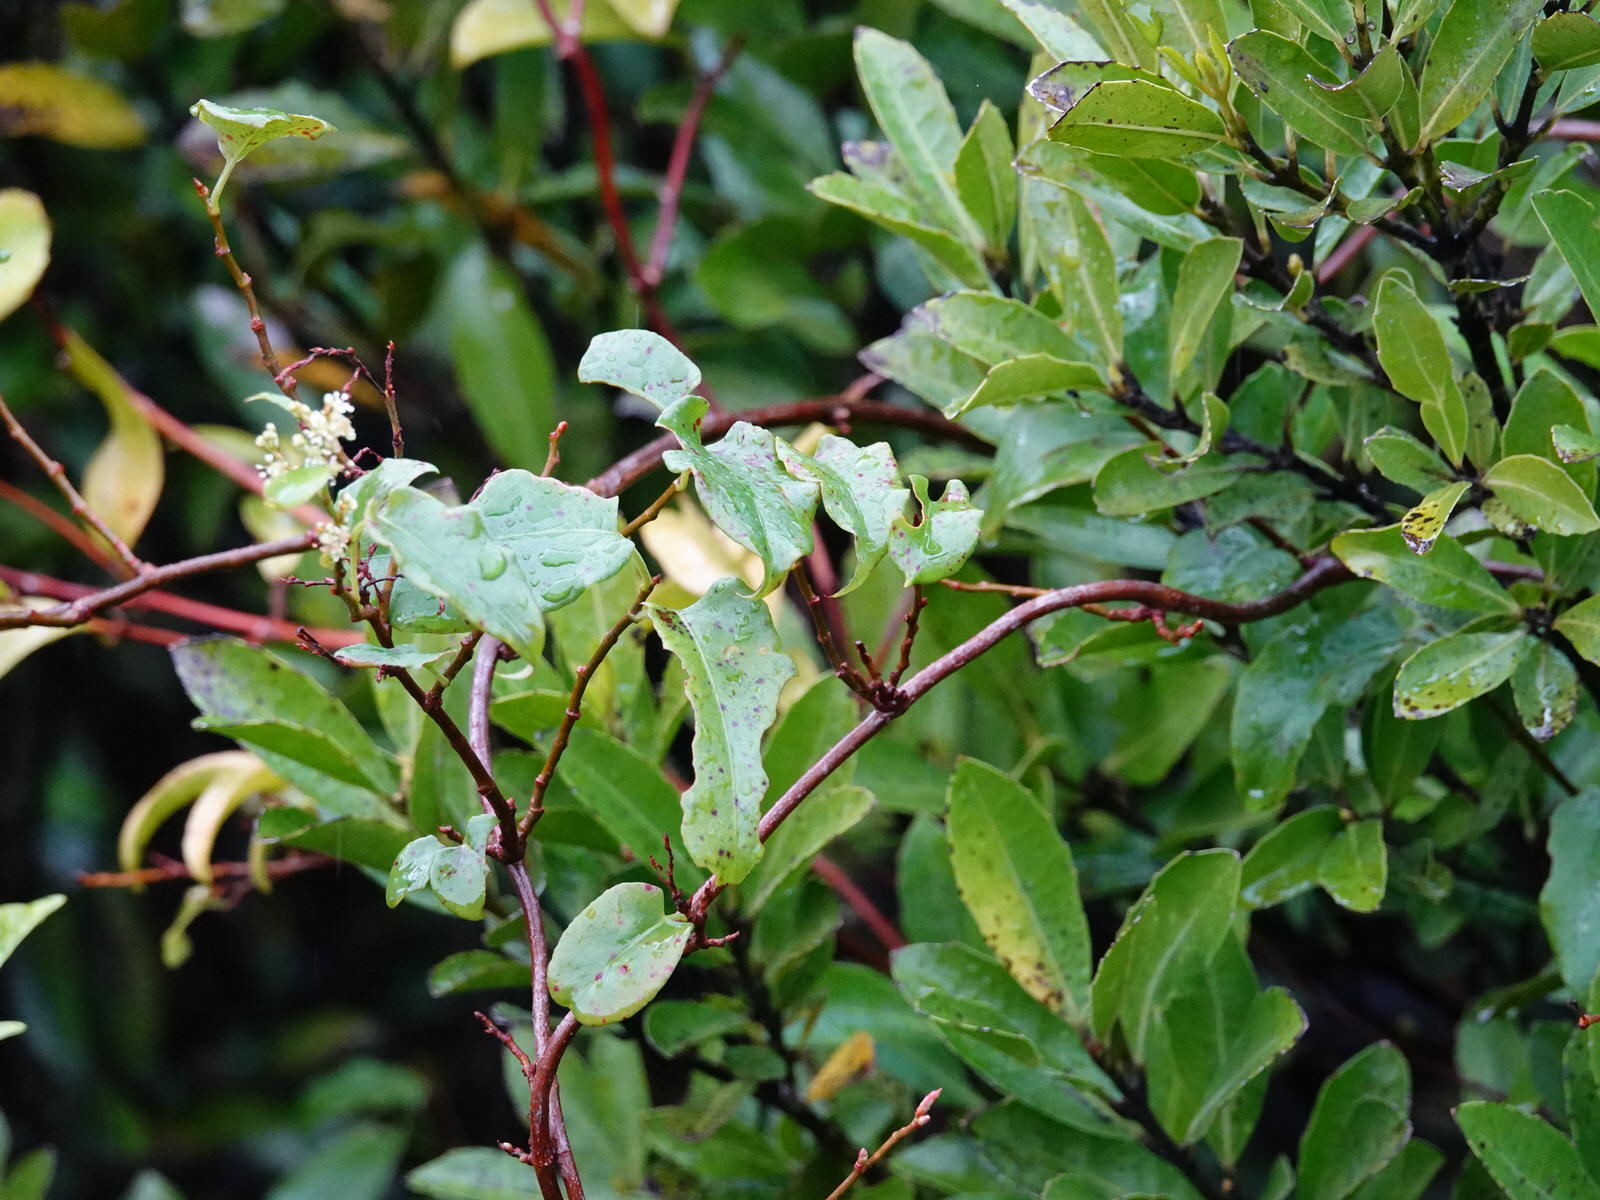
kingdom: Plantae
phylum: Tracheophyta
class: Magnoliopsida
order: Caryophyllales
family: Polygonaceae
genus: Muehlenbeckia
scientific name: Muehlenbeckia australis
